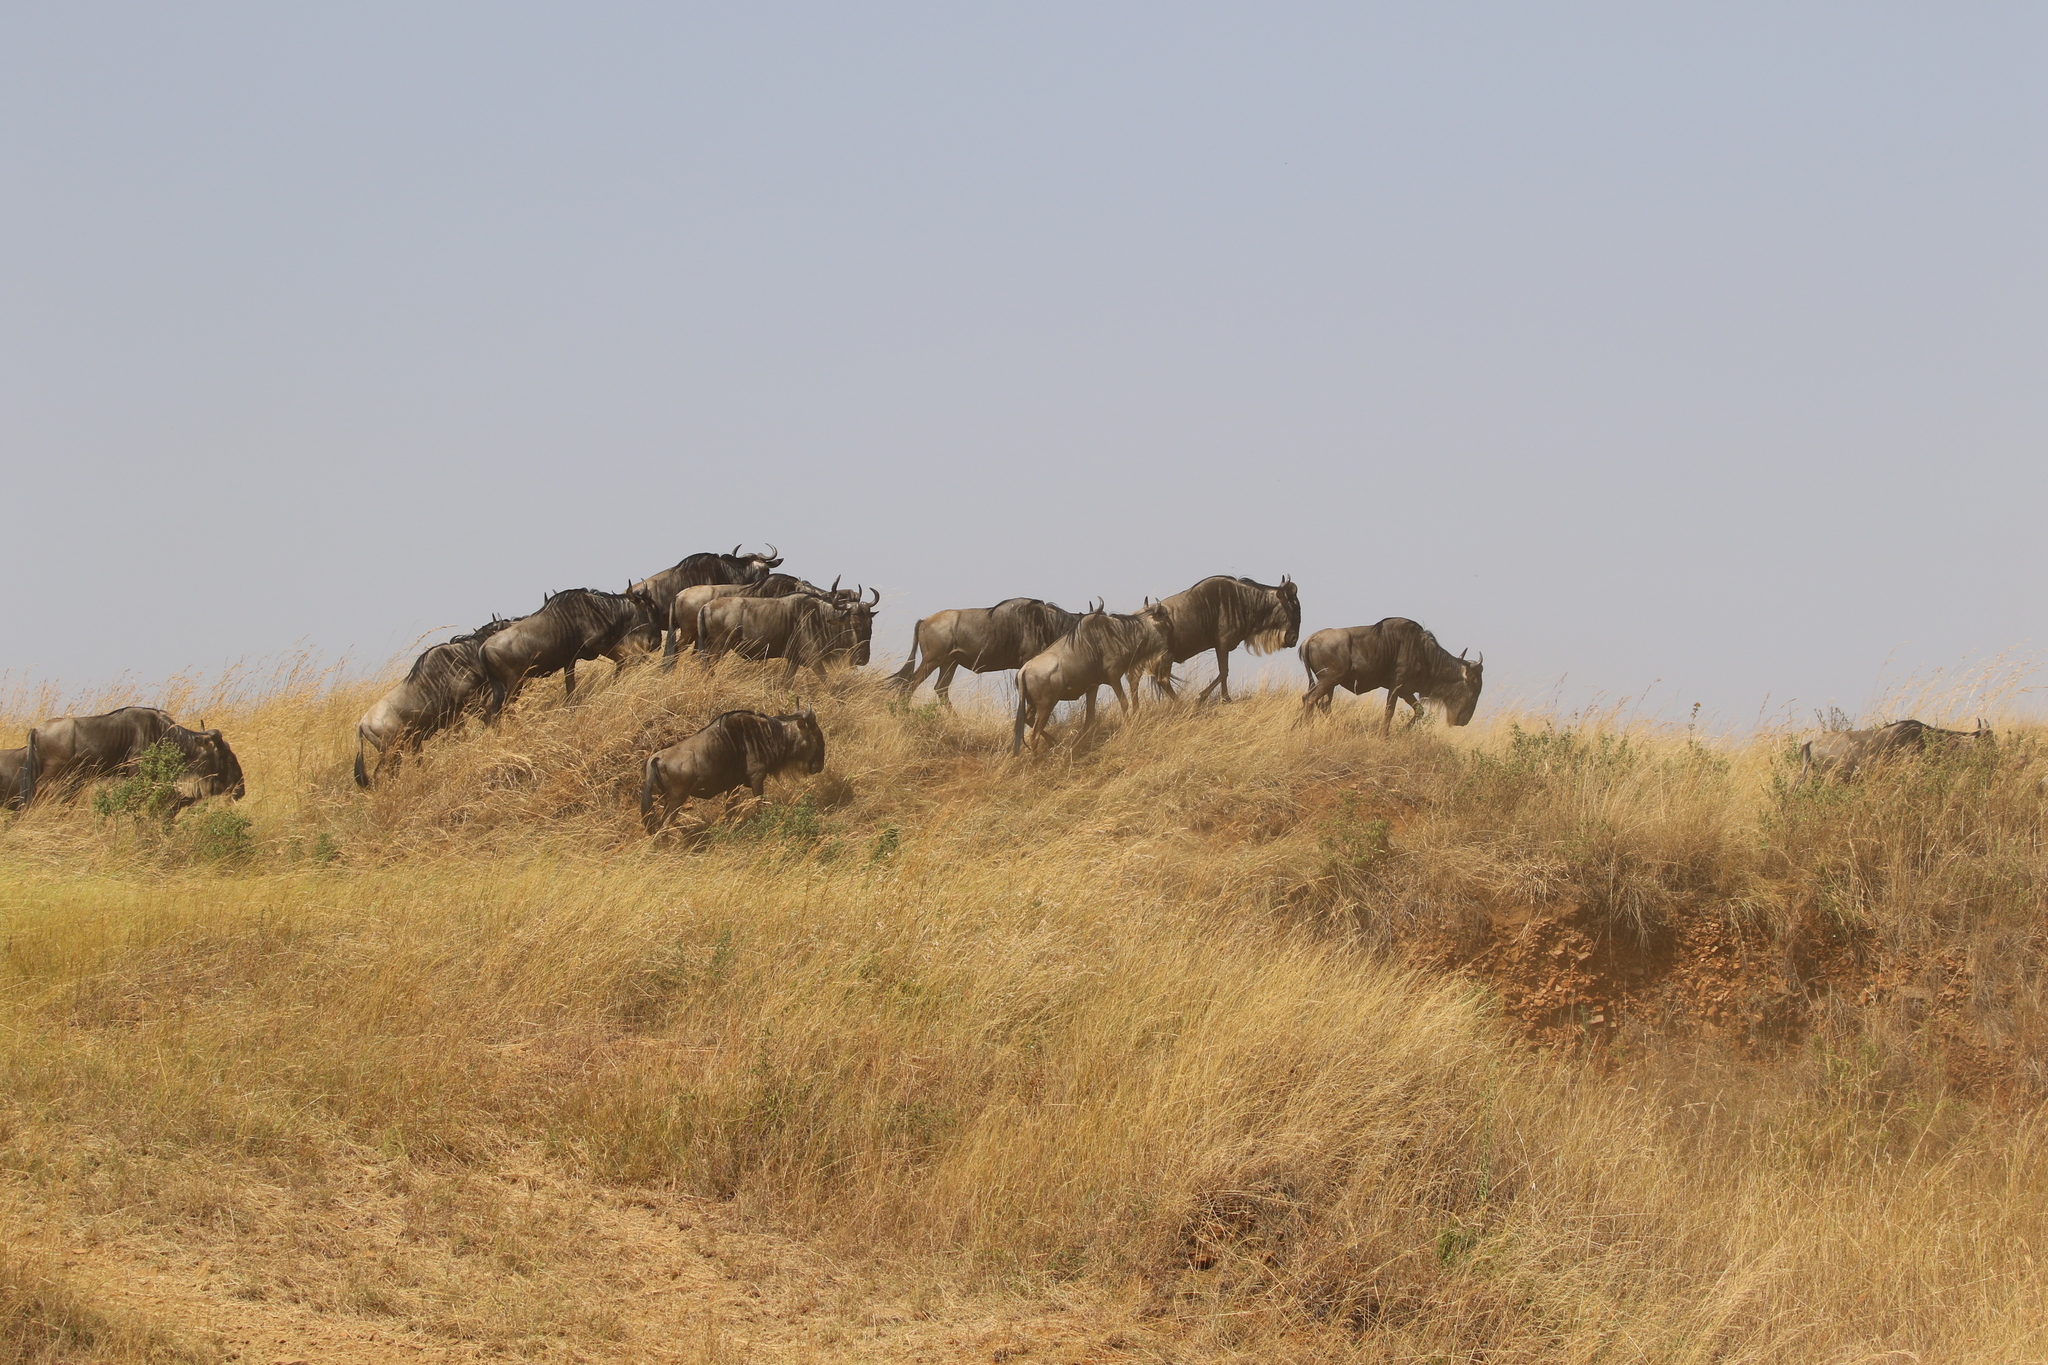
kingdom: Animalia
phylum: Chordata
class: Mammalia
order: Artiodactyla
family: Bovidae
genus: Connochaetes
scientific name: Connochaetes taurinus
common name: Blue wildebeest
